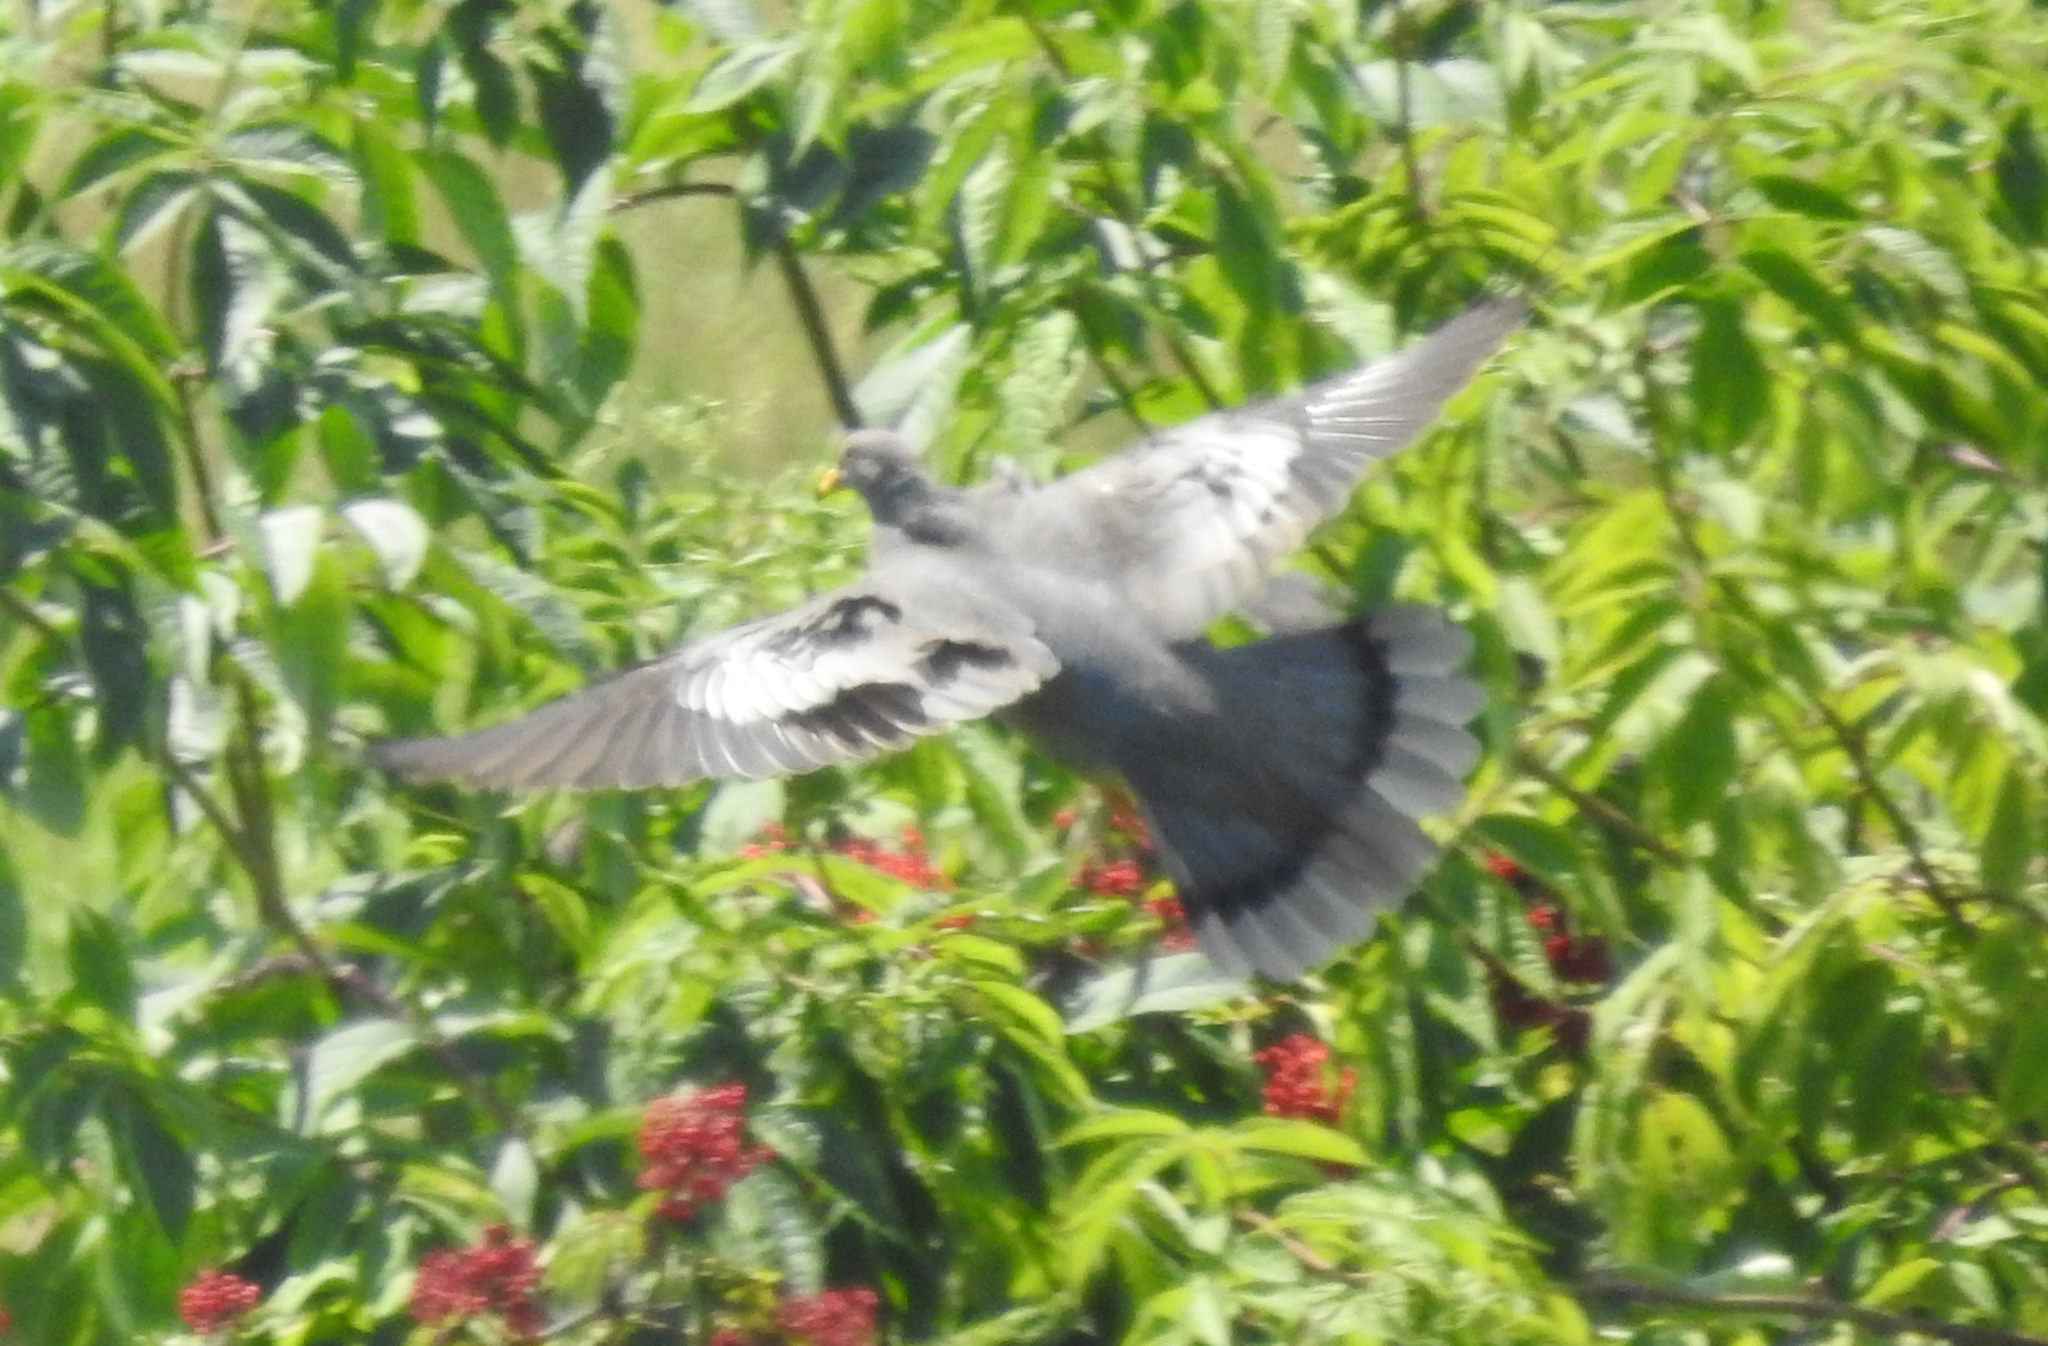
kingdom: Animalia
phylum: Chordata
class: Aves
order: Columbiformes
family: Columbidae
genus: Patagioenas
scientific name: Patagioenas fasciata
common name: Band-tailed pigeon
